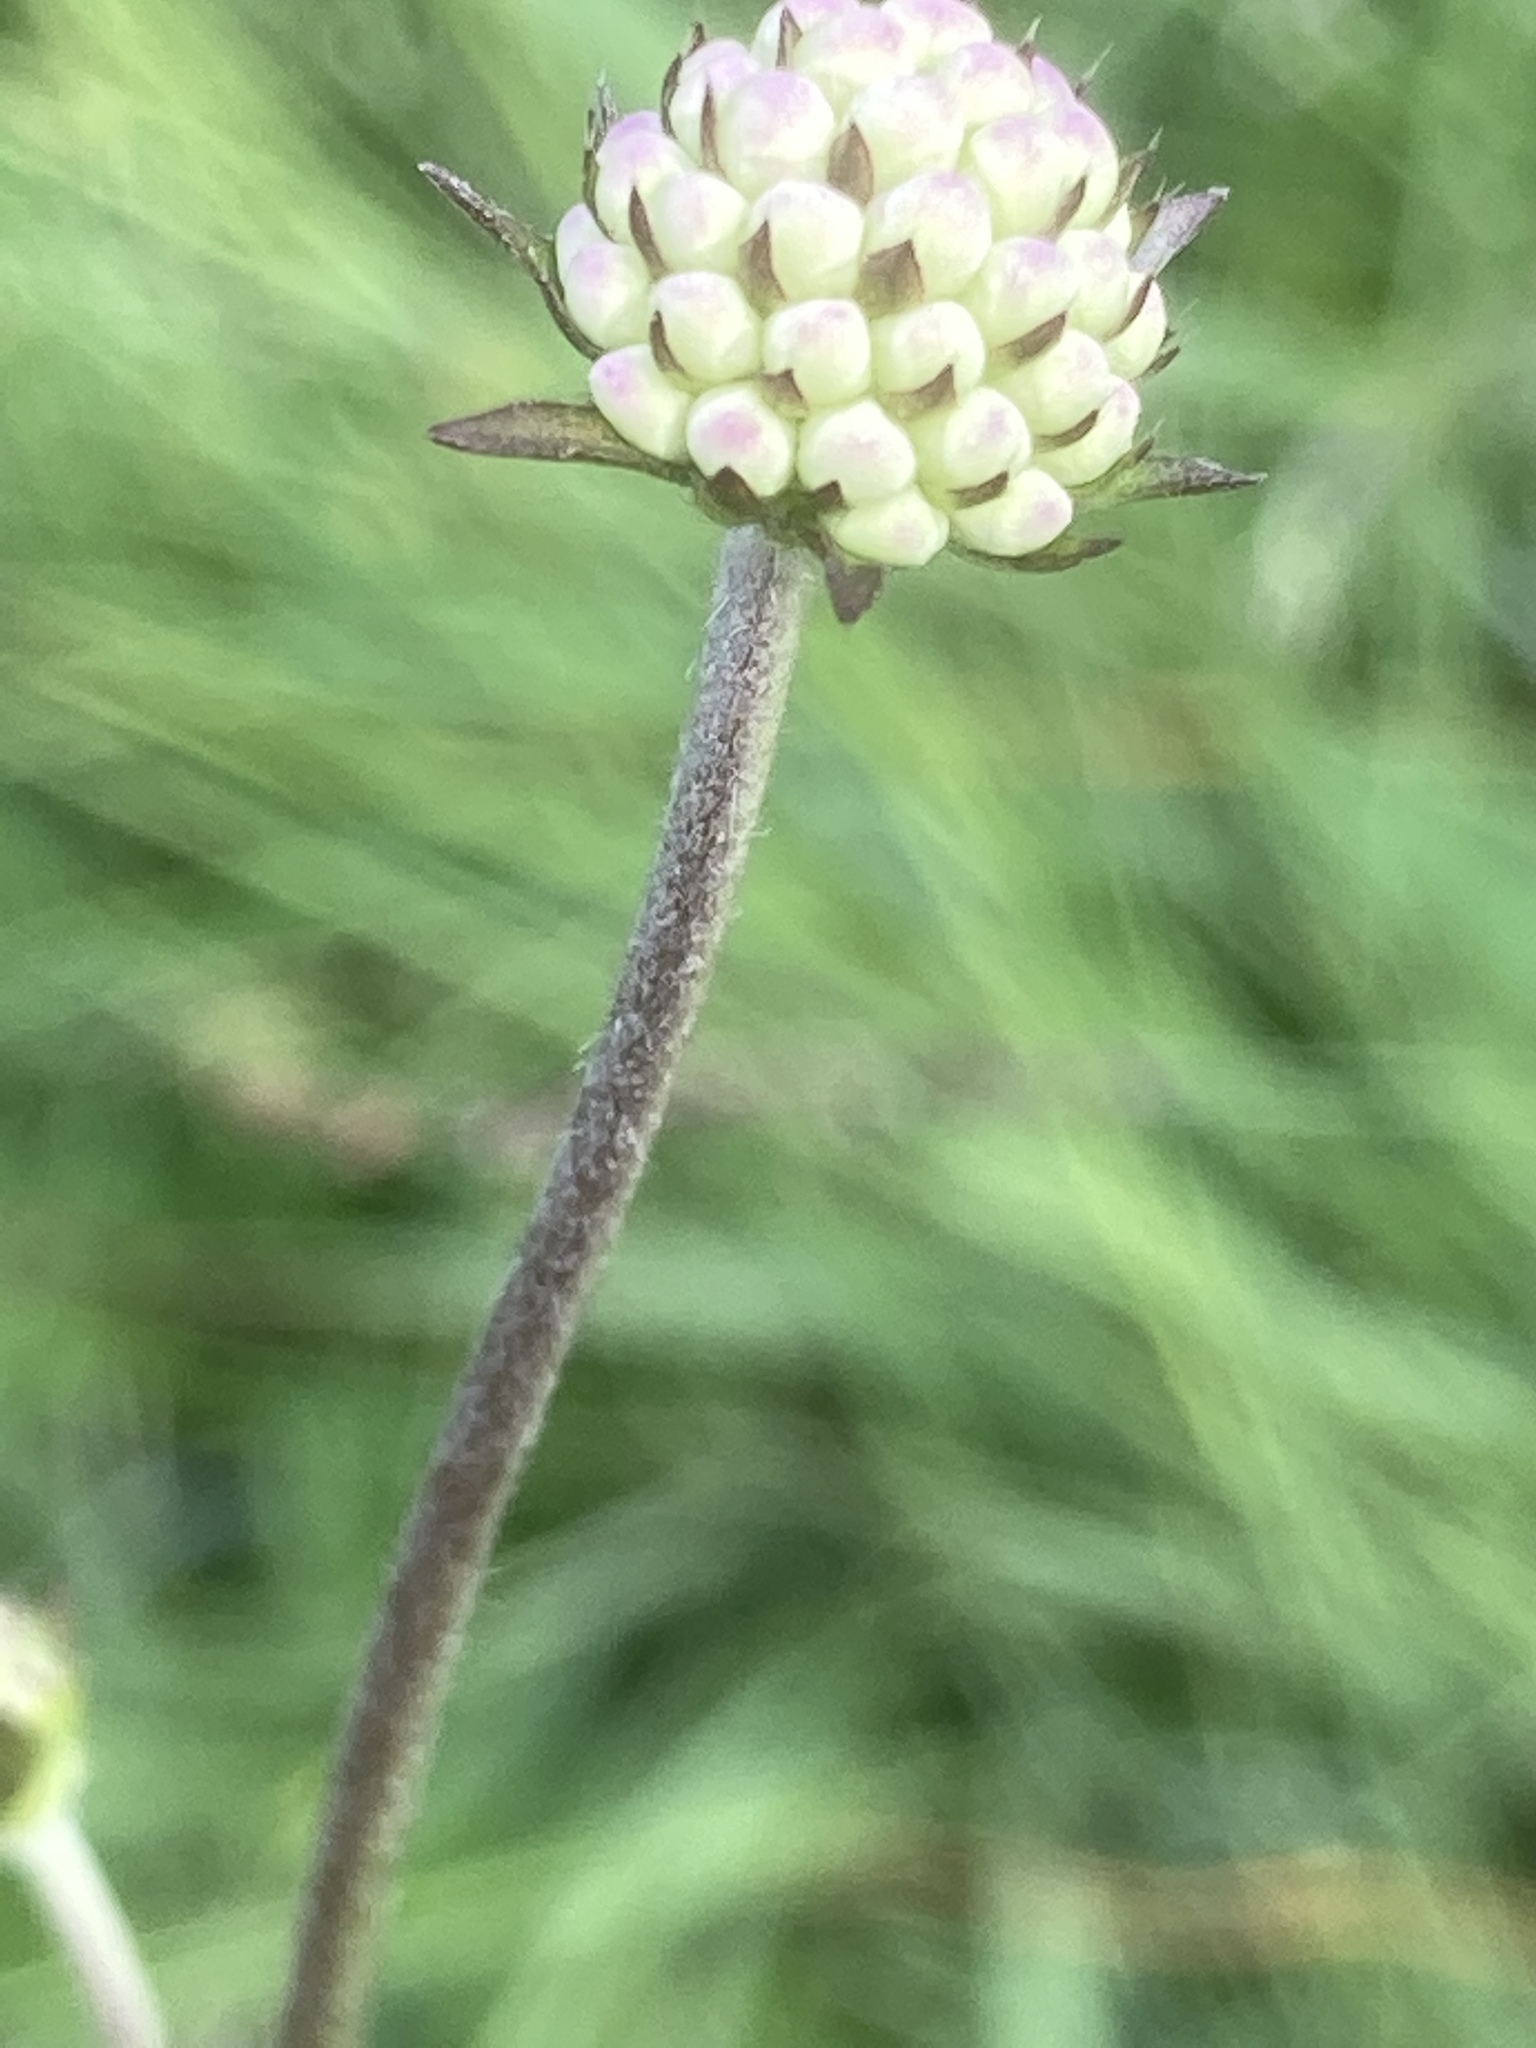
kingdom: Plantae
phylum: Tracheophyta
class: Magnoliopsida
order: Dipsacales
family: Caprifoliaceae
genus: Succisa
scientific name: Succisa pratensis
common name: Devil's-bit
